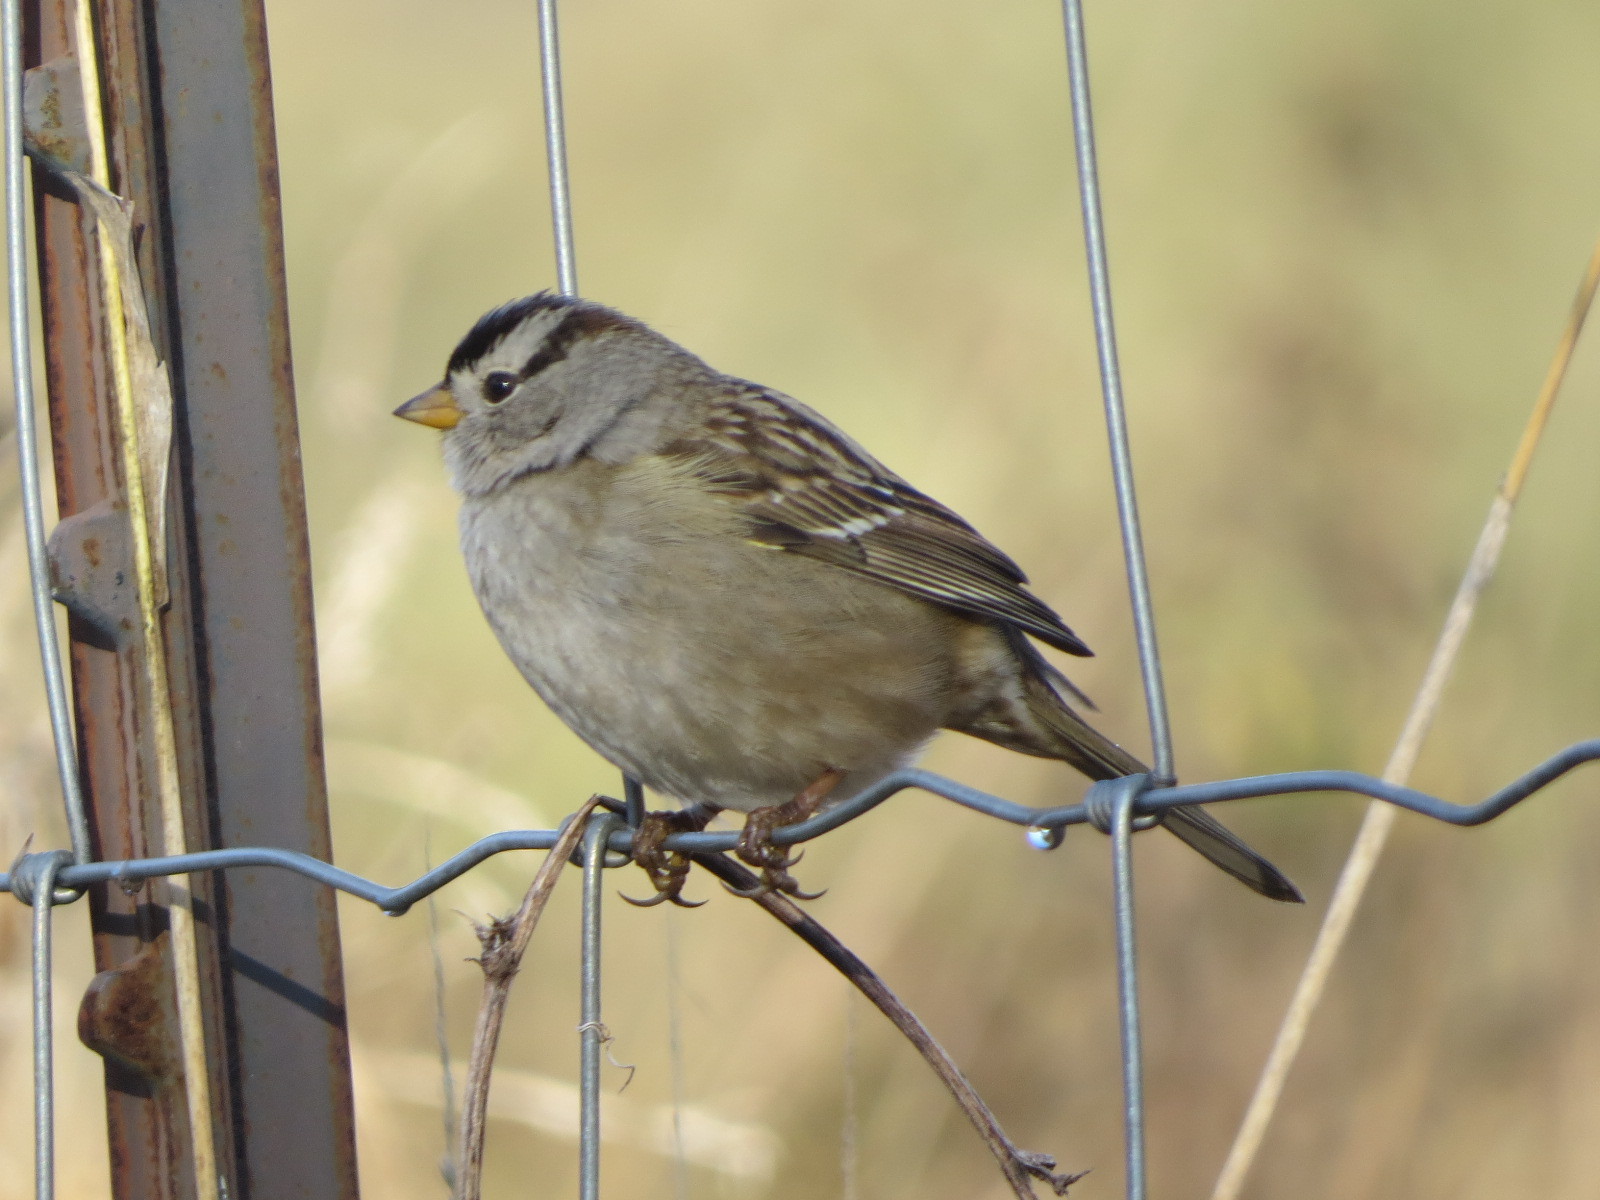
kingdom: Animalia
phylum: Chordata
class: Aves
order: Passeriformes
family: Passerellidae
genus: Zonotrichia
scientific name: Zonotrichia leucophrys
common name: White-crowned sparrow
